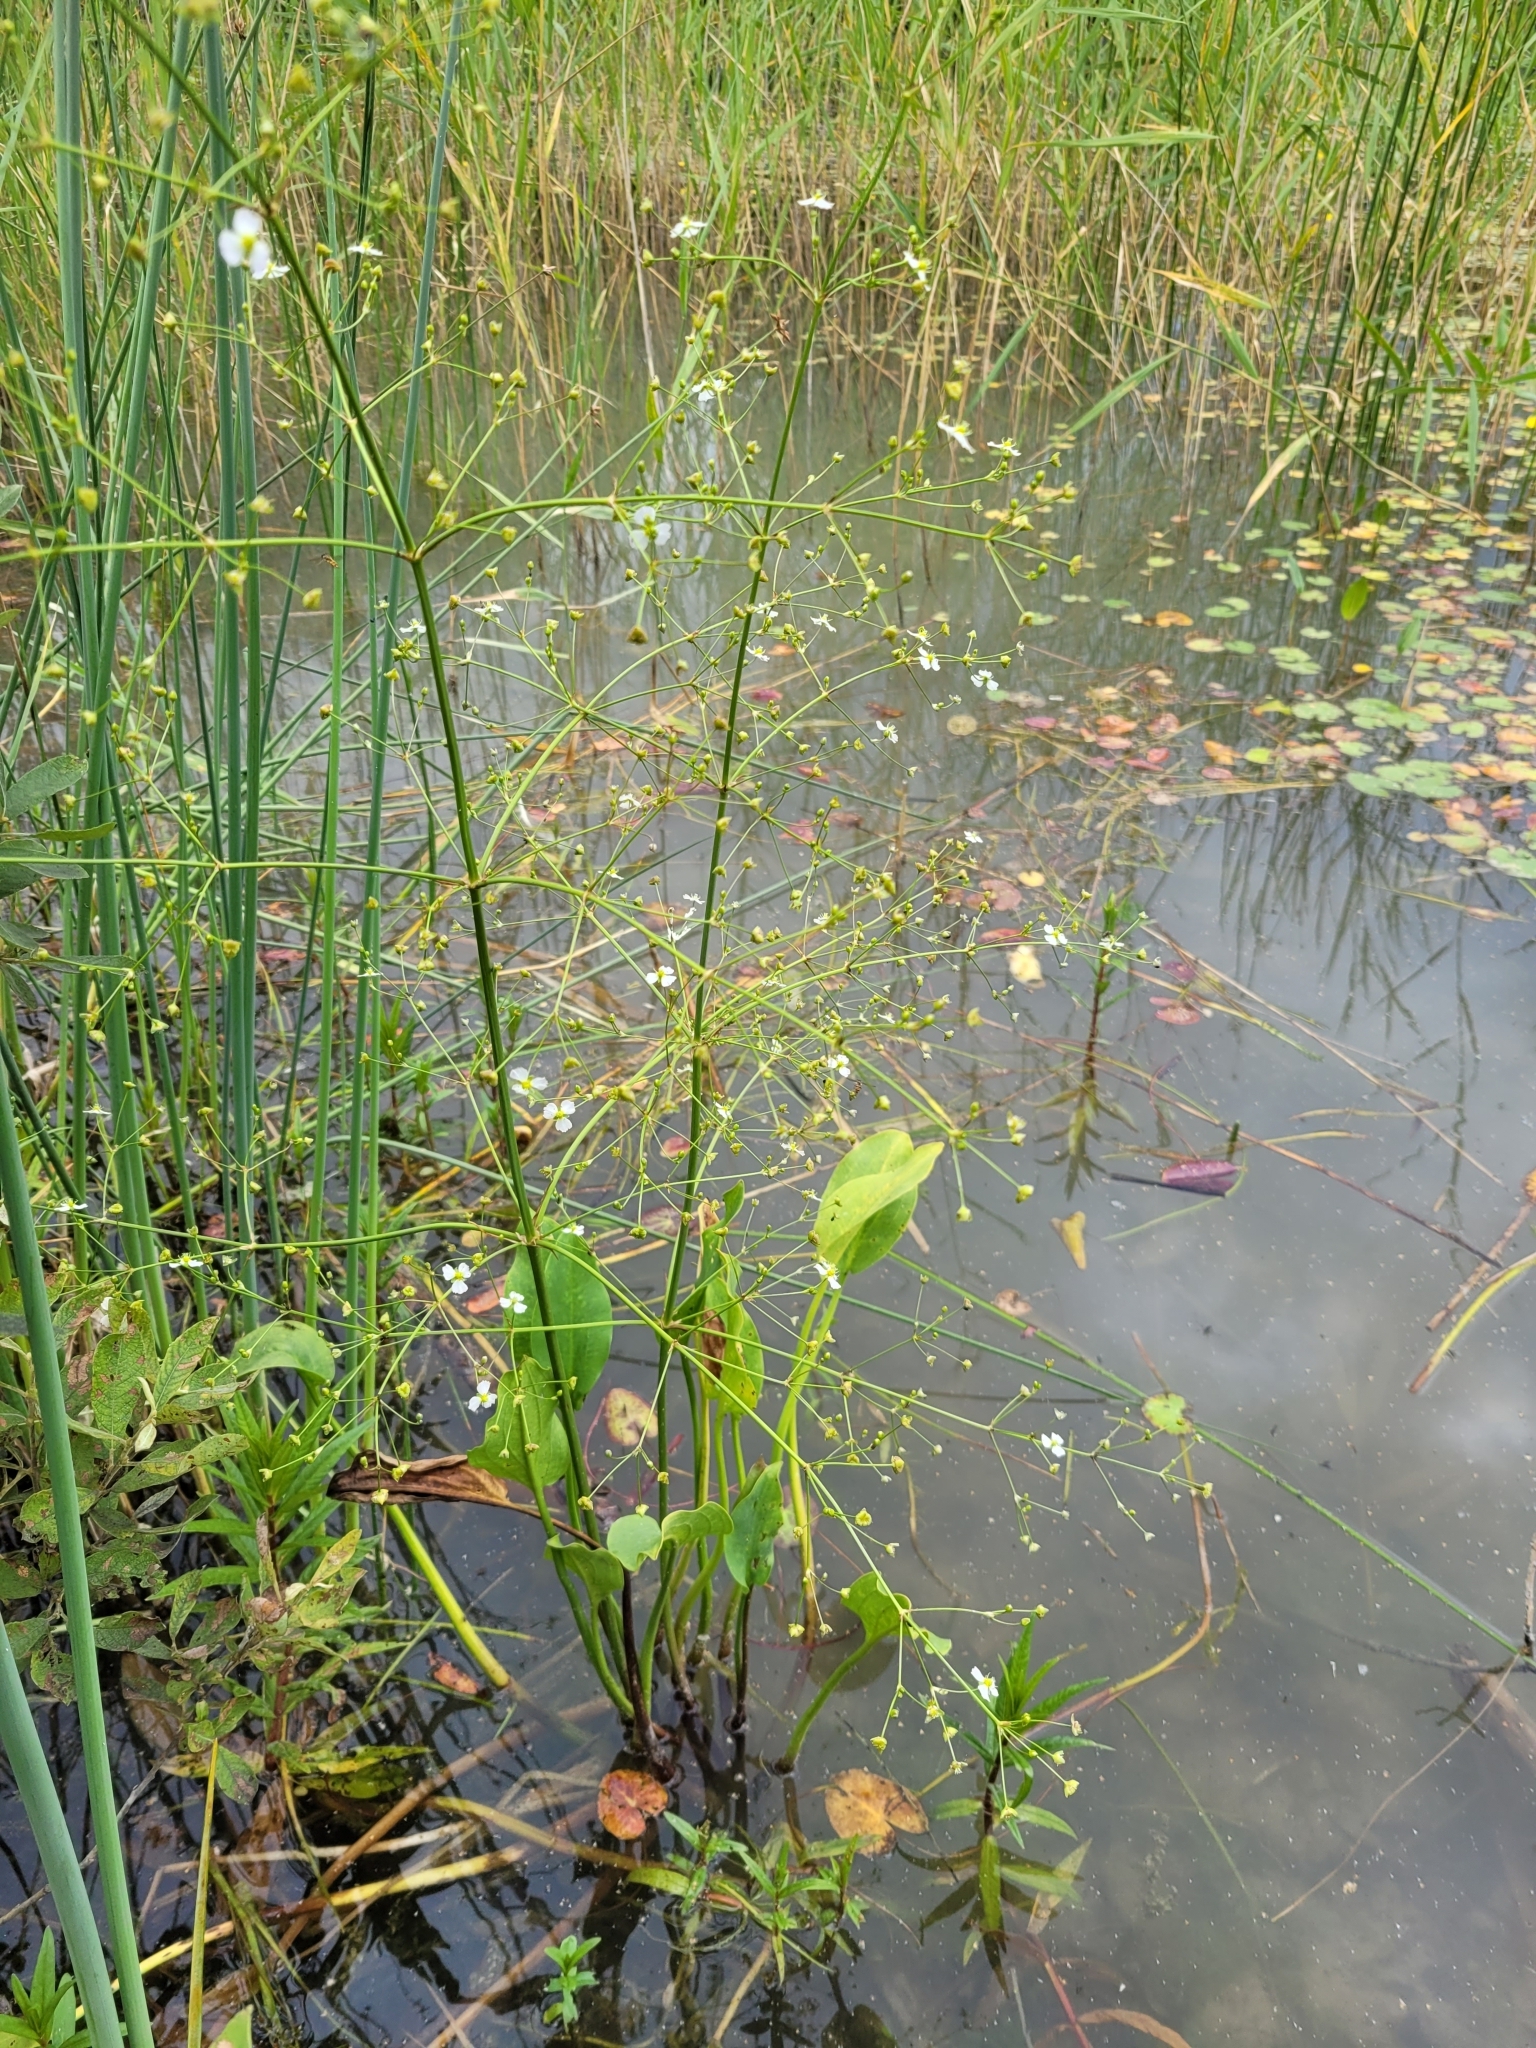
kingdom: Plantae
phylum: Tracheophyta
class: Liliopsida
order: Alismatales
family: Alismataceae
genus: Alisma
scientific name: Alisma plantago-aquatica
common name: Water-plantain
